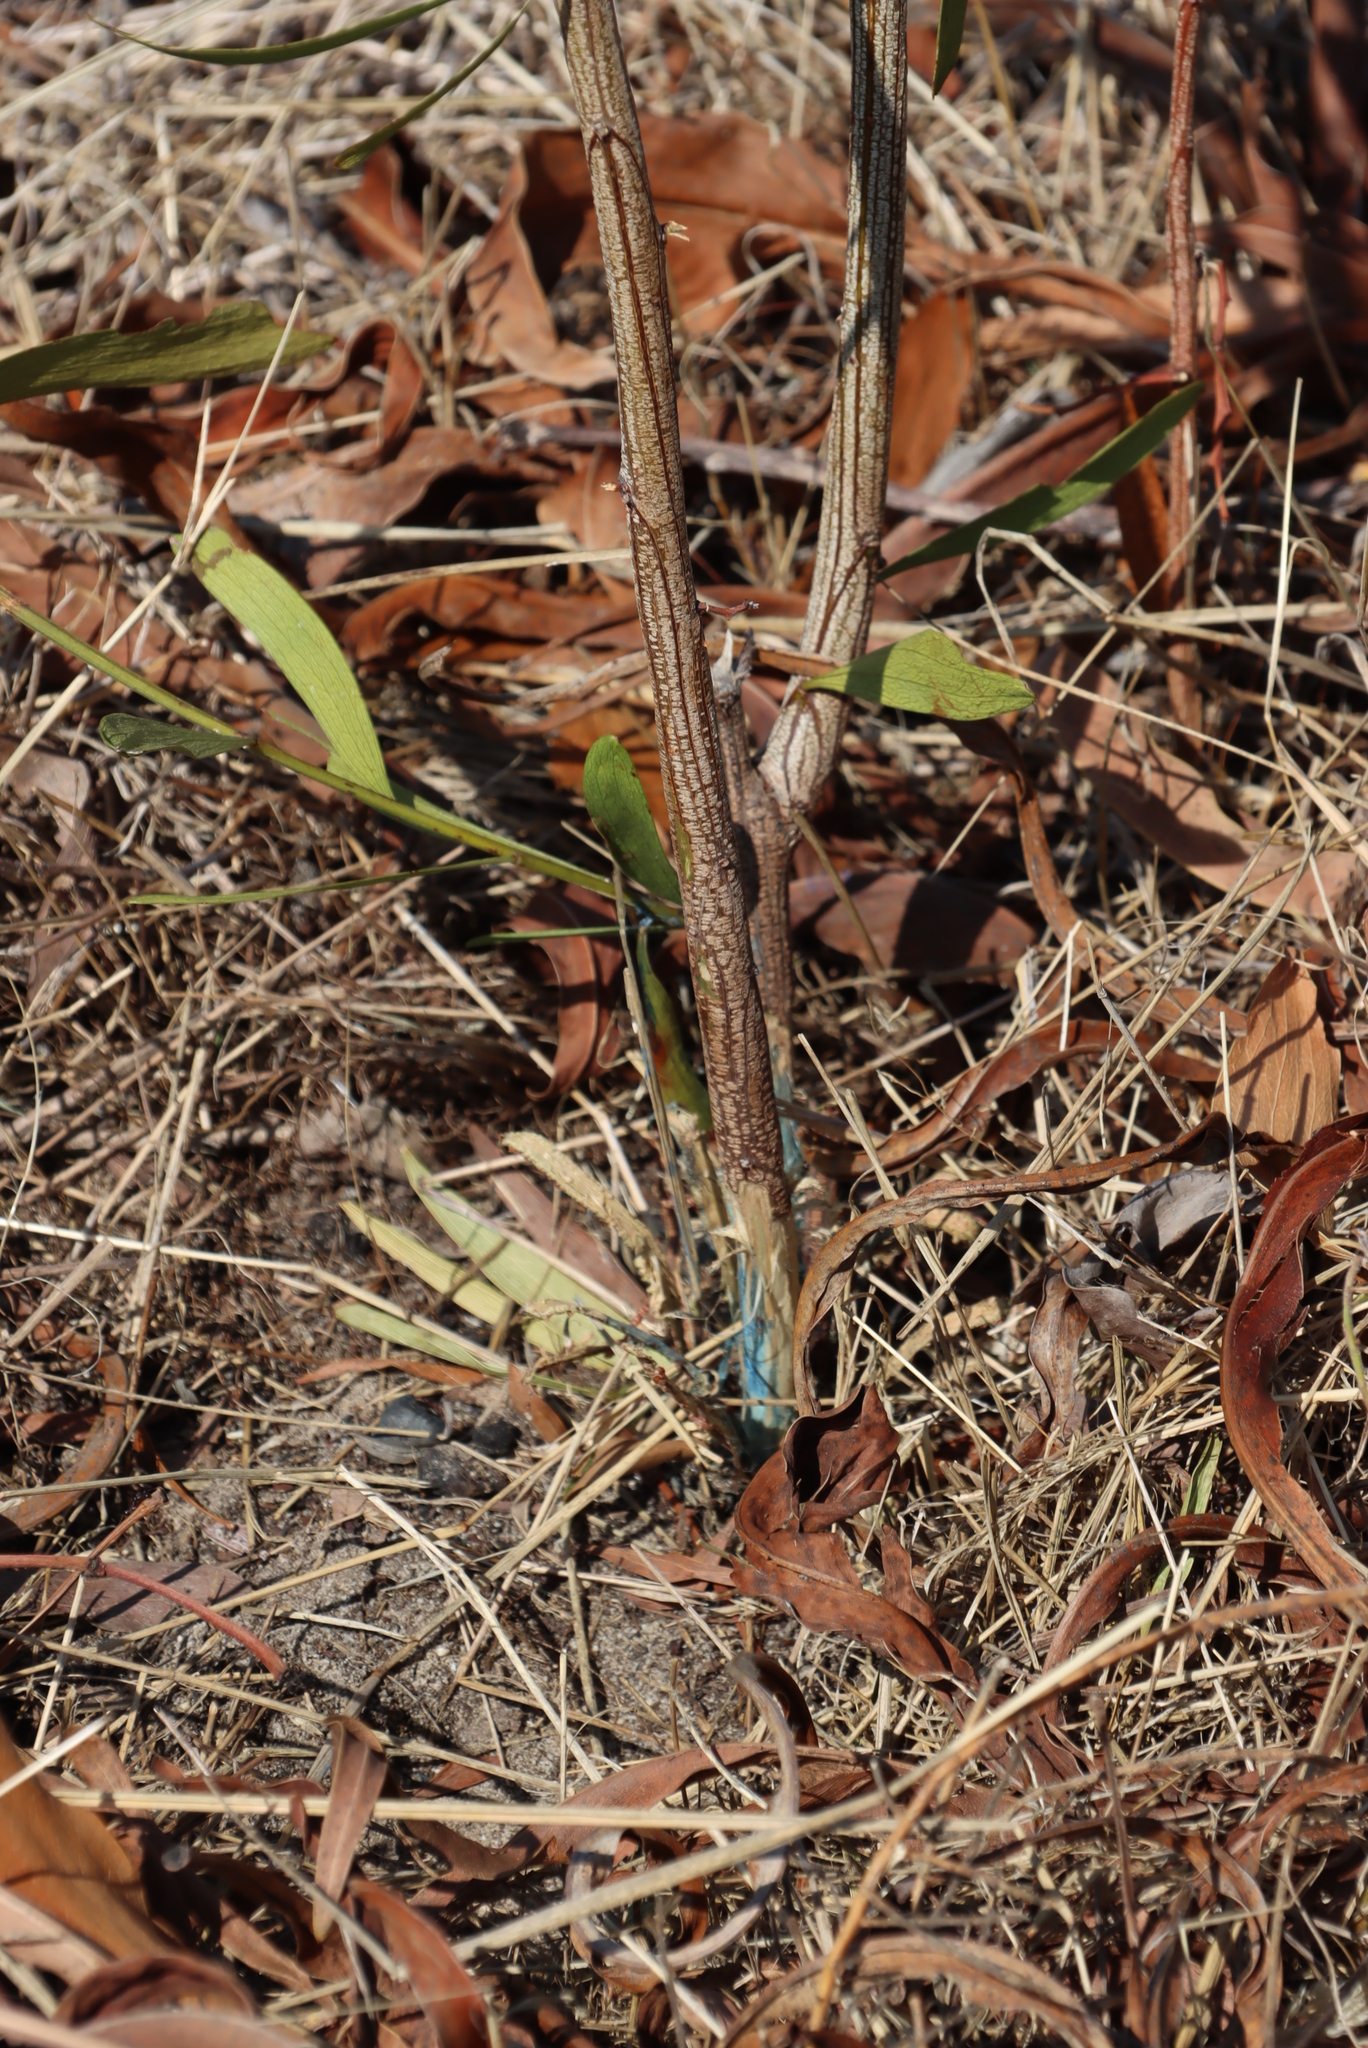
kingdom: Plantae
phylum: Tracheophyta
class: Magnoliopsida
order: Fabales
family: Fabaceae
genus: Acacia
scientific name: Acacia implexa
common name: Black wattle
